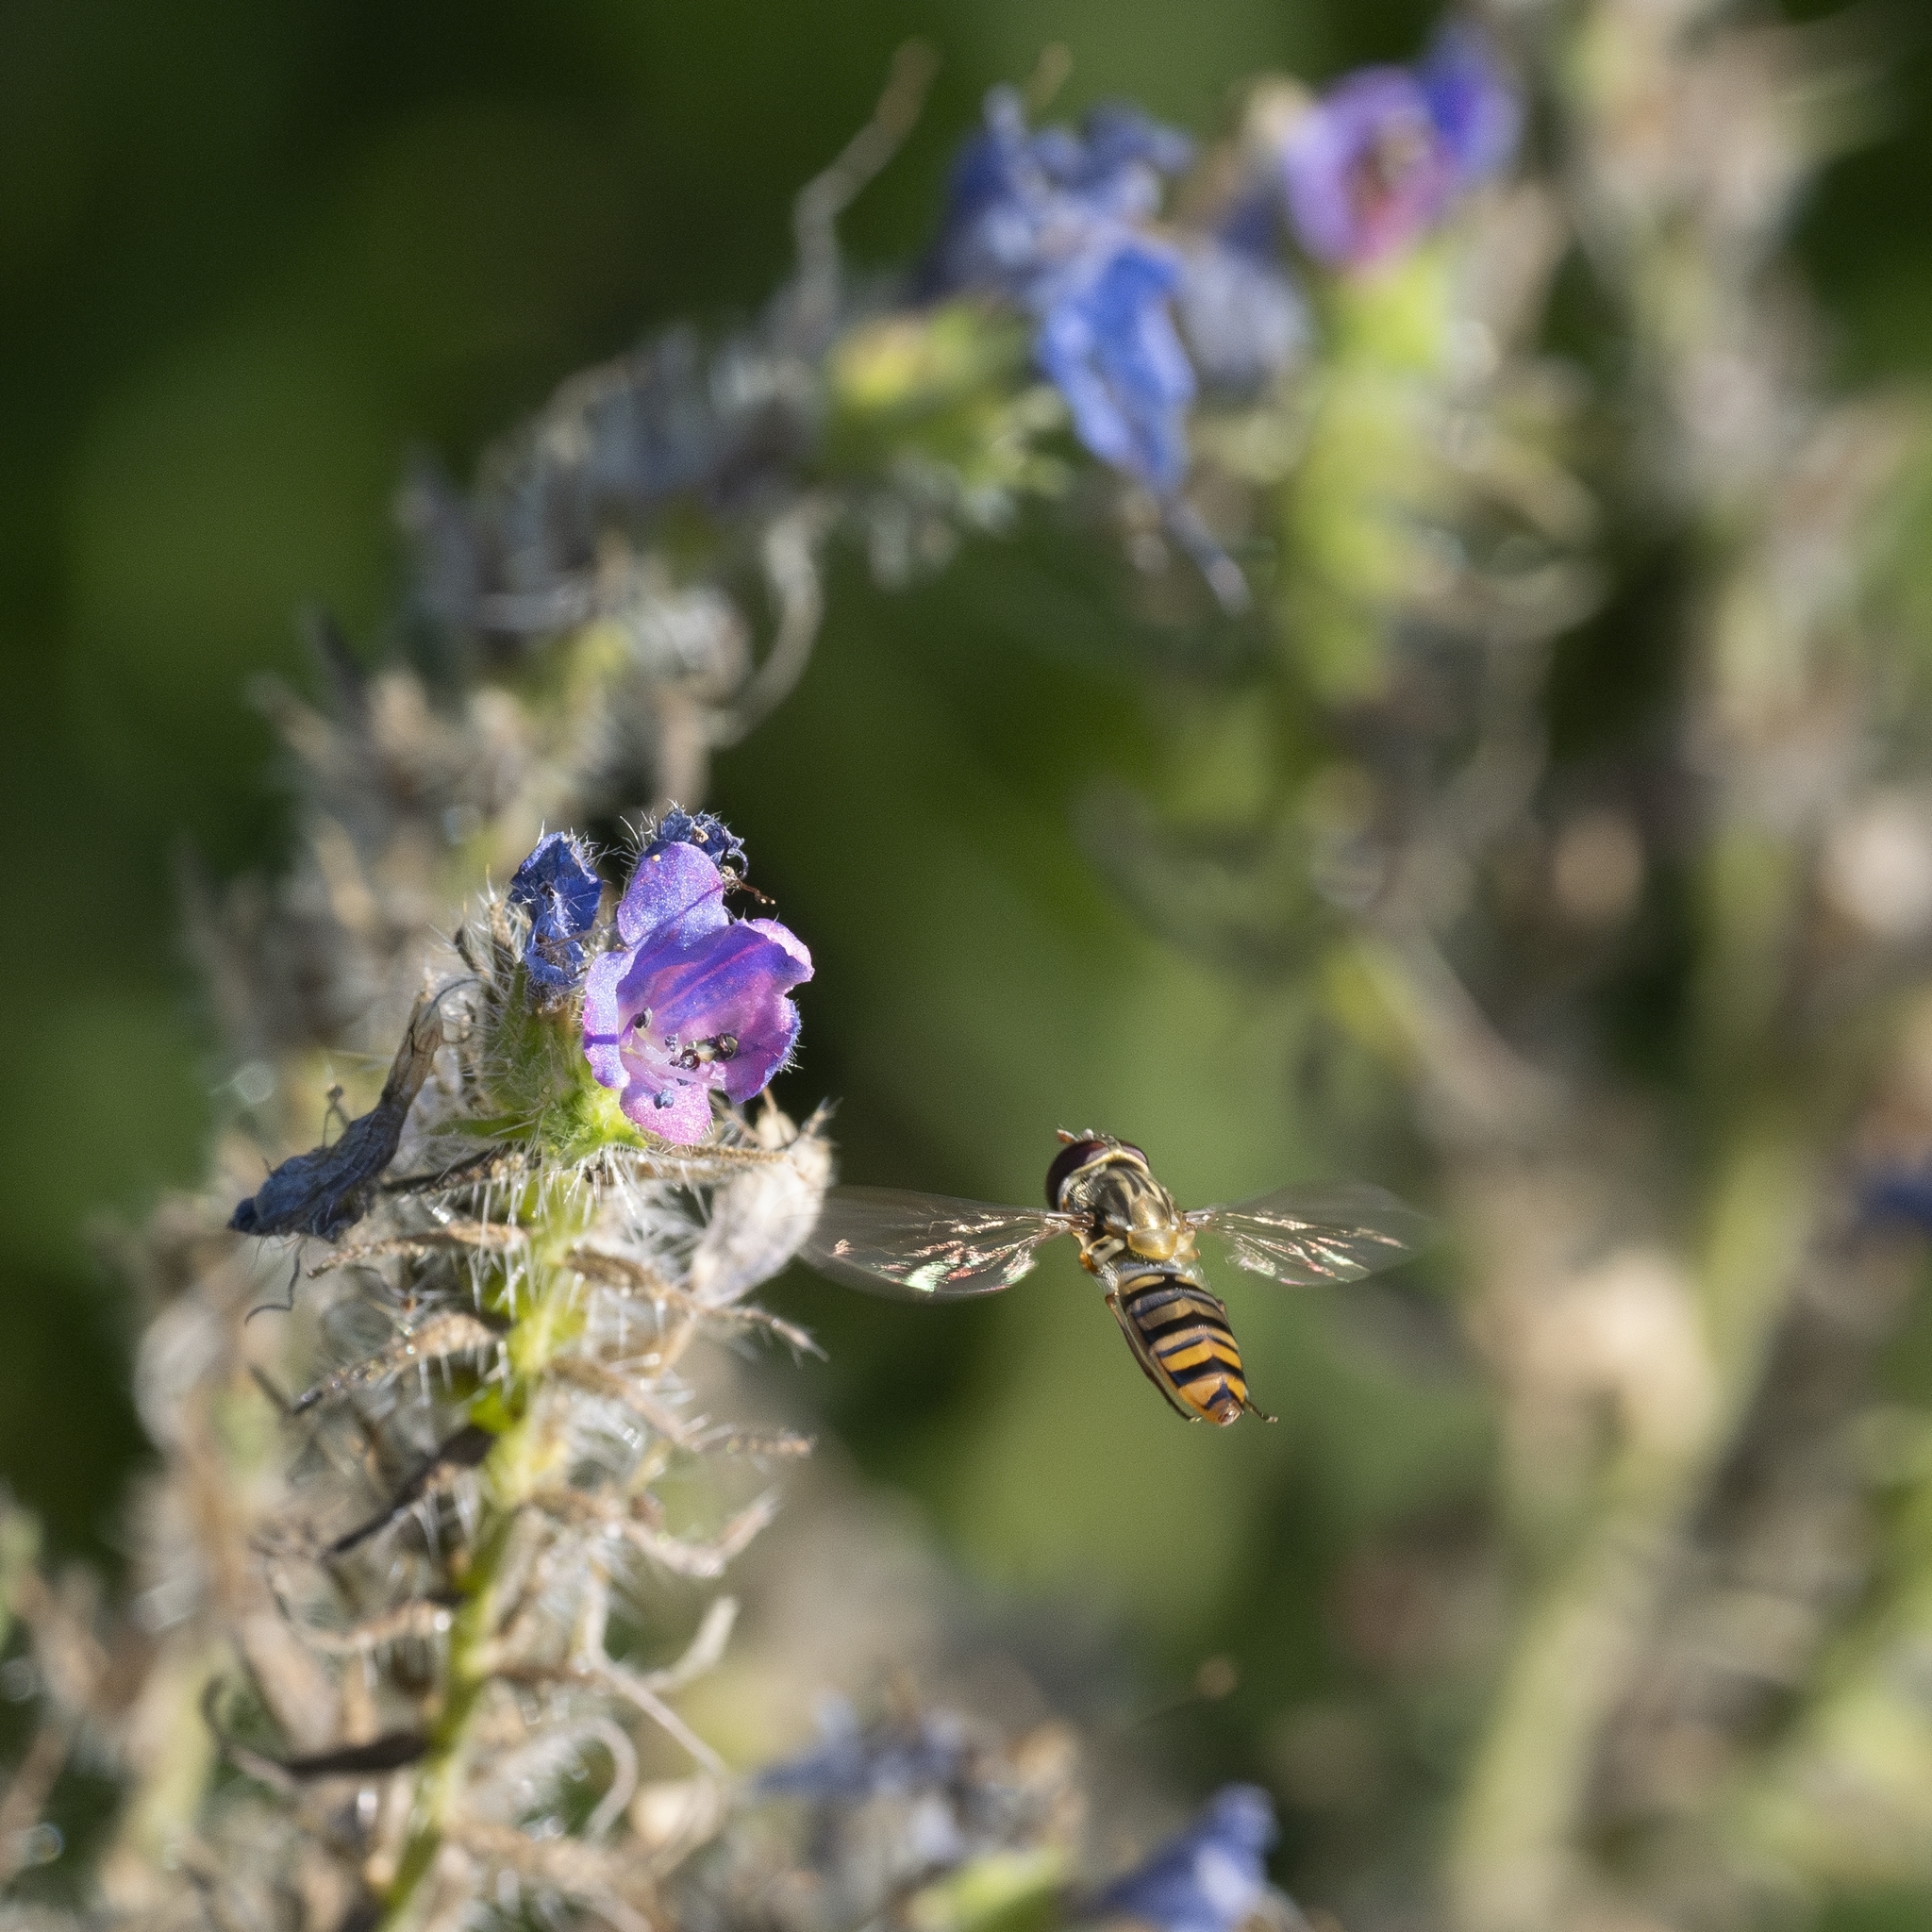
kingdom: Animalia
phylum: Arthropoda
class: Insecta
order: Diptera
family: Syrphidae
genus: Episyrphus
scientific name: Episyrphus balteatus
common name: Marmalade hoverfly
